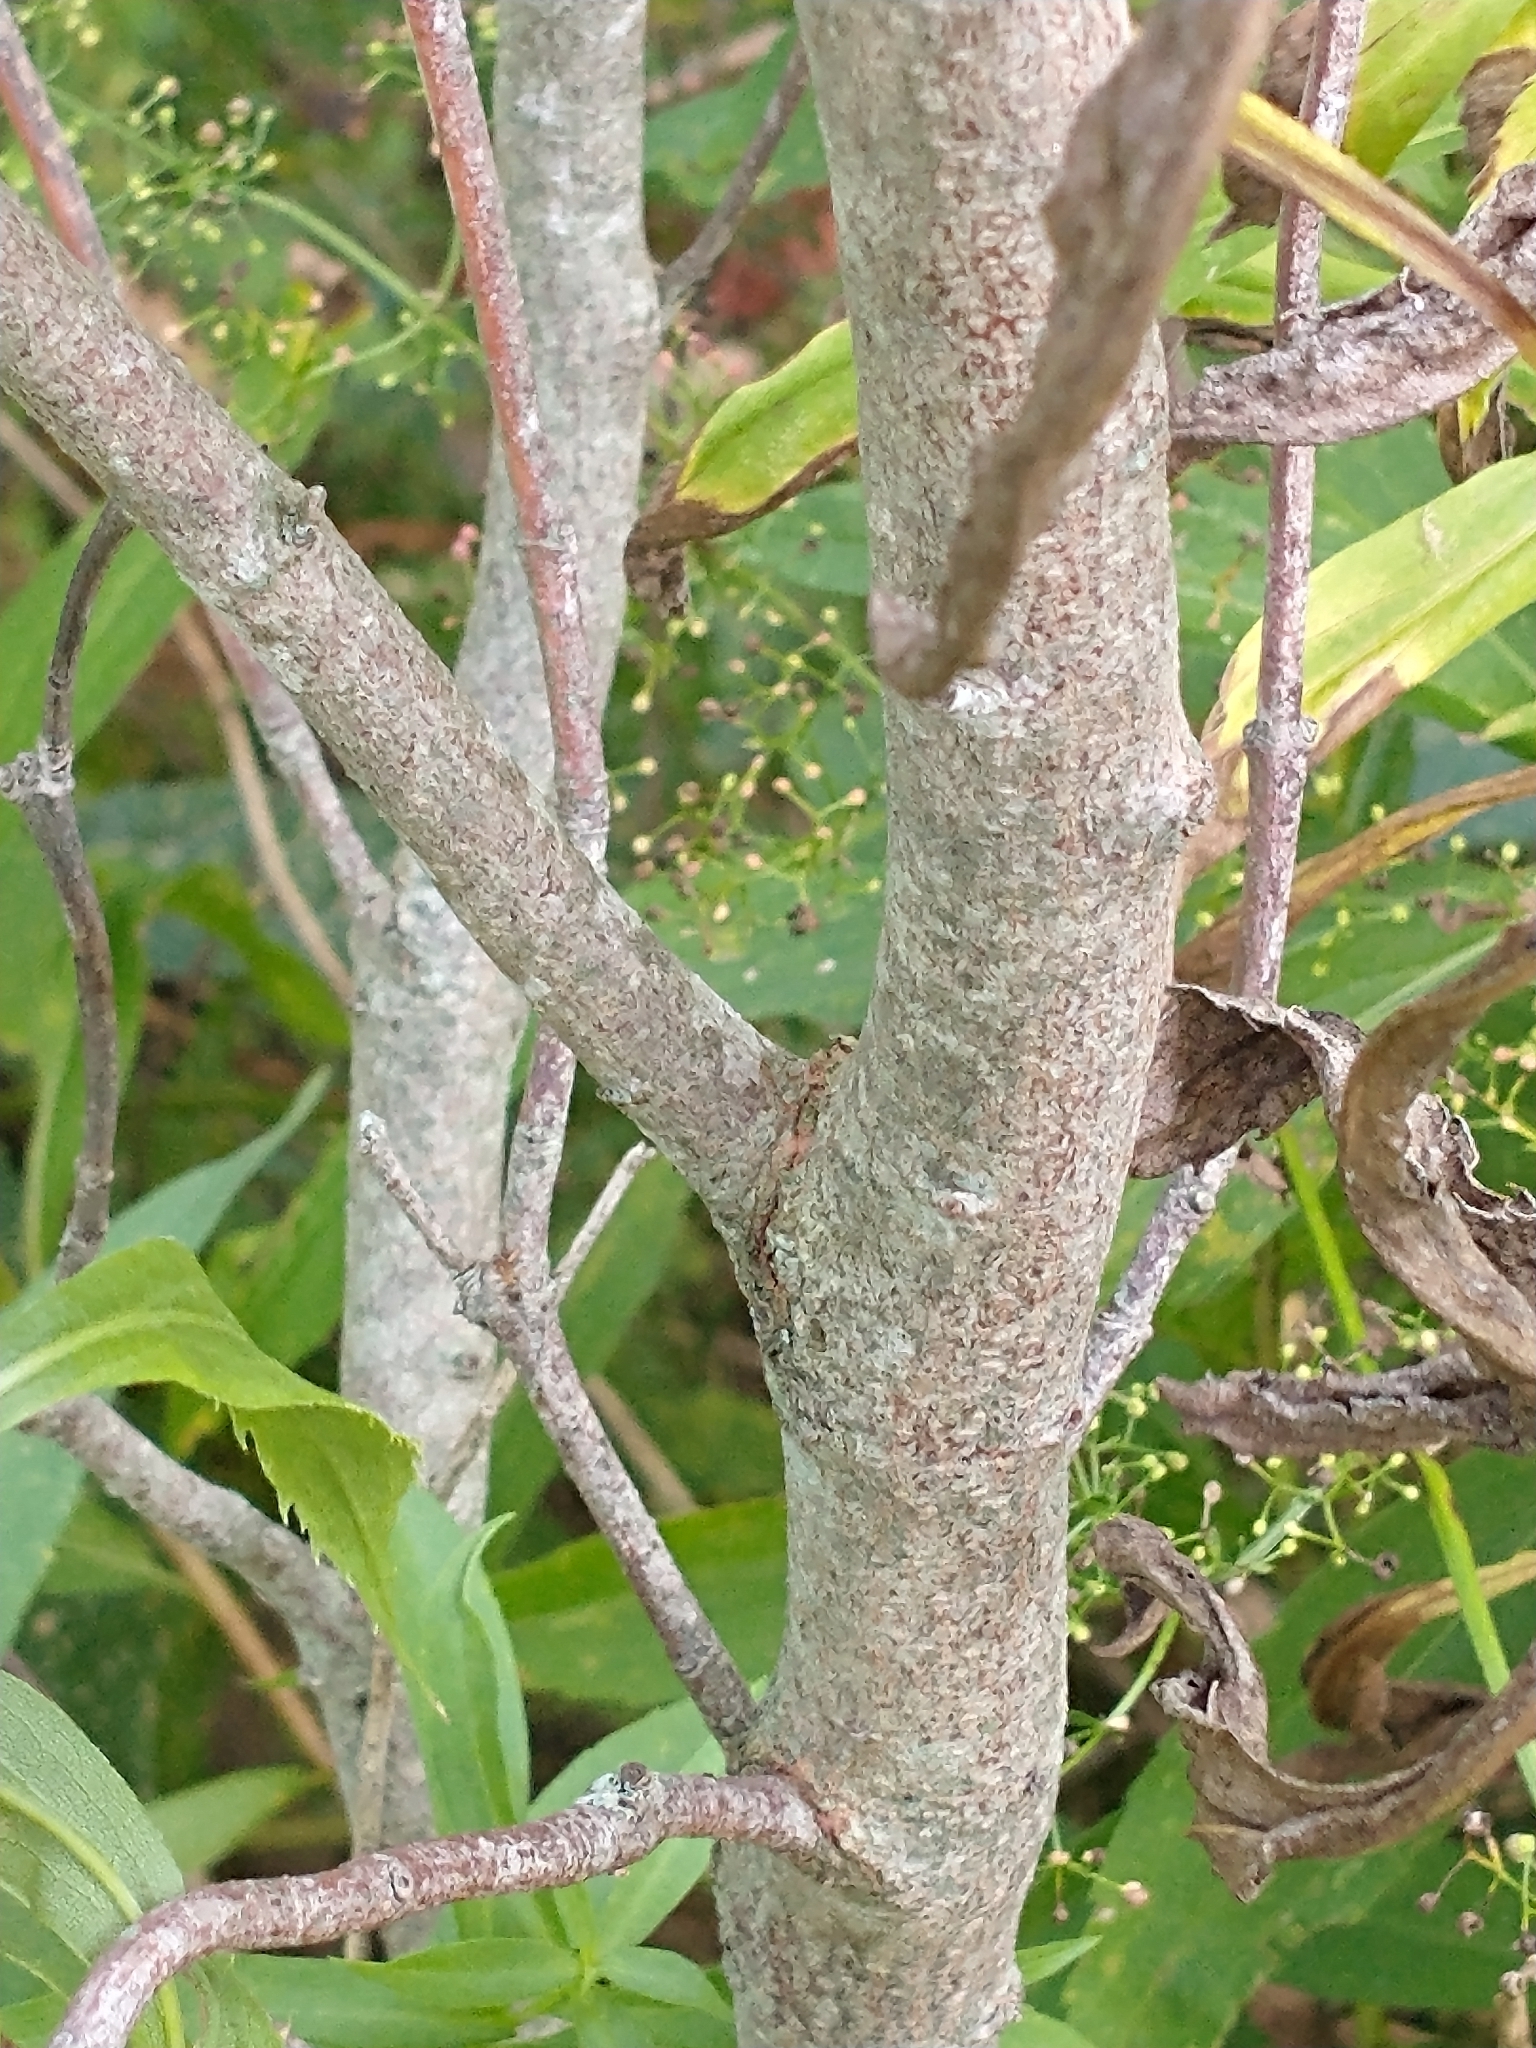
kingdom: Plantae
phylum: Tracheophyta
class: Magnoliopsida
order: Cornales
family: Cornaceae
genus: Cornus
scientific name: Cornus racemosa
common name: Panicled dogwood
